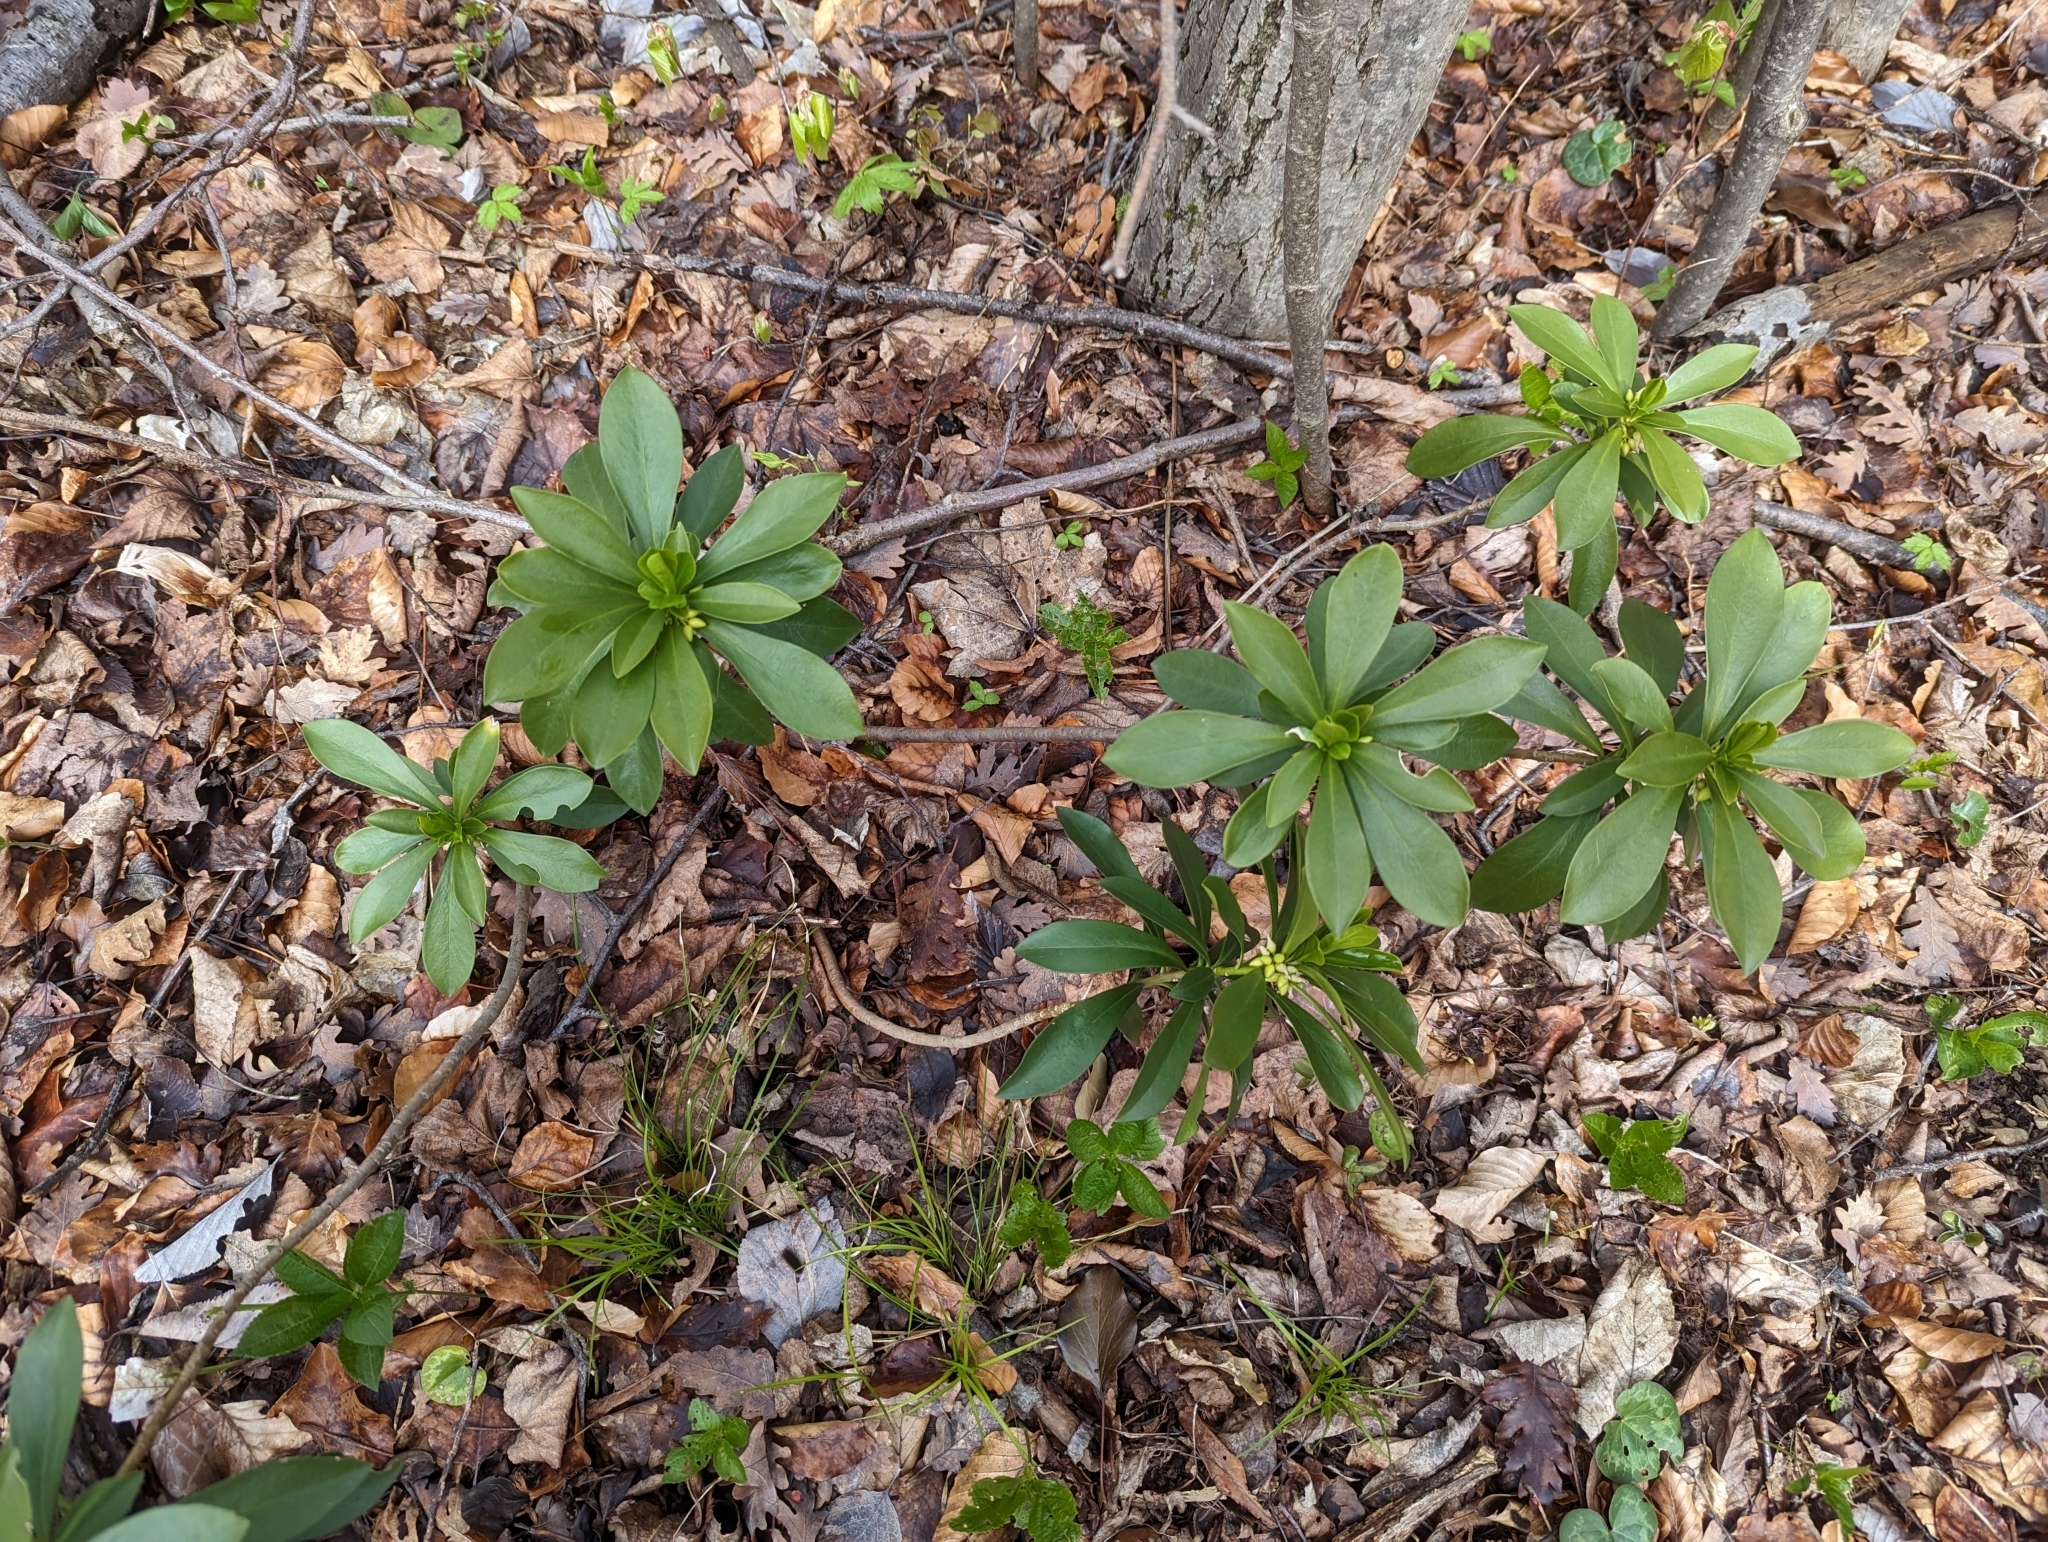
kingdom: Plantae
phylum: Tracheophyta
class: Magnoliopsida
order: Malvales
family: Thymelaeaceae
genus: Daphne
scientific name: Daphne laureola
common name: Spurge-laurel
